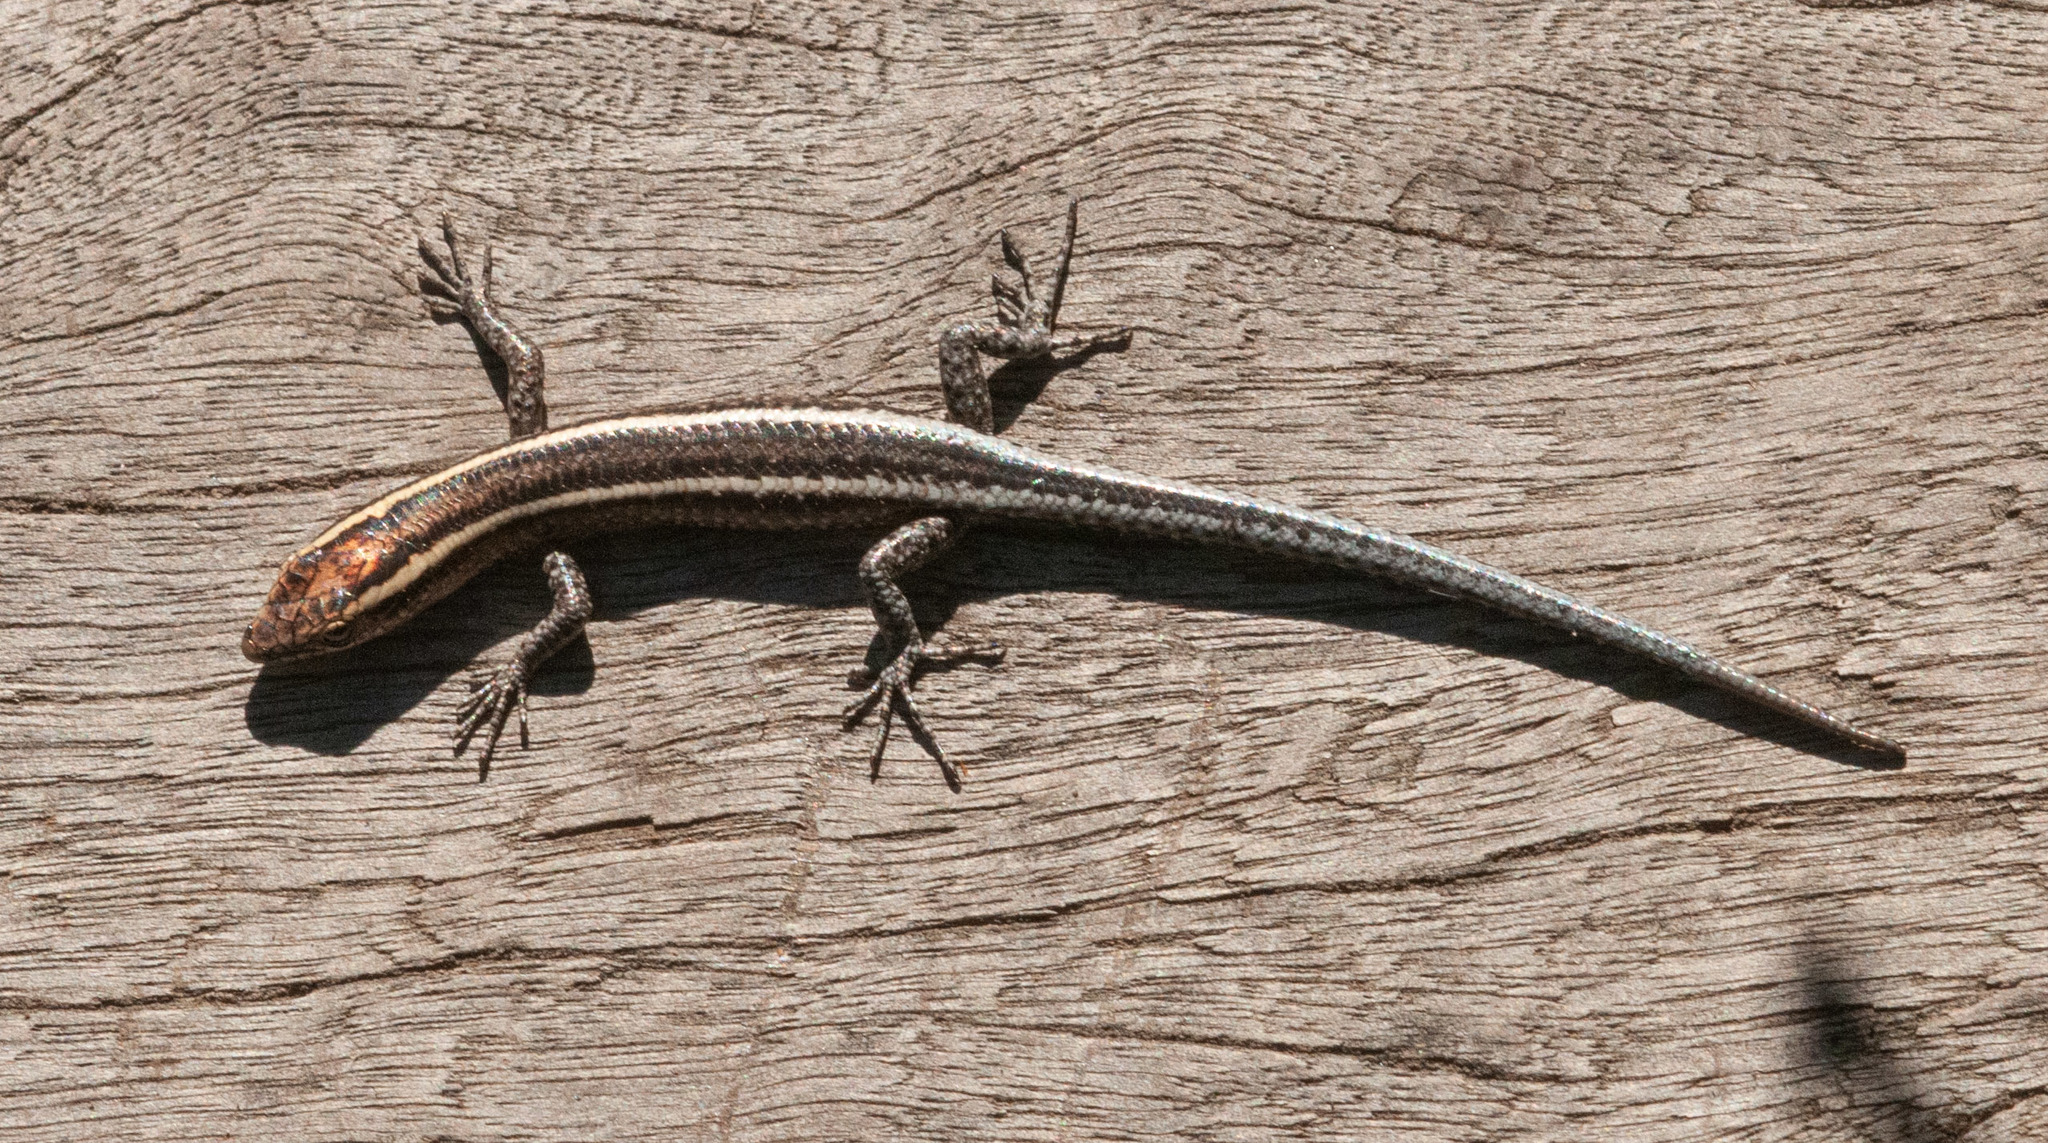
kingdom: Animalia
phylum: Chordata
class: Squamata
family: Scincidae
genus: Cryptoblepharus
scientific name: Cryptoblepharus pulcher
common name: Elegant snake-eyed skink
